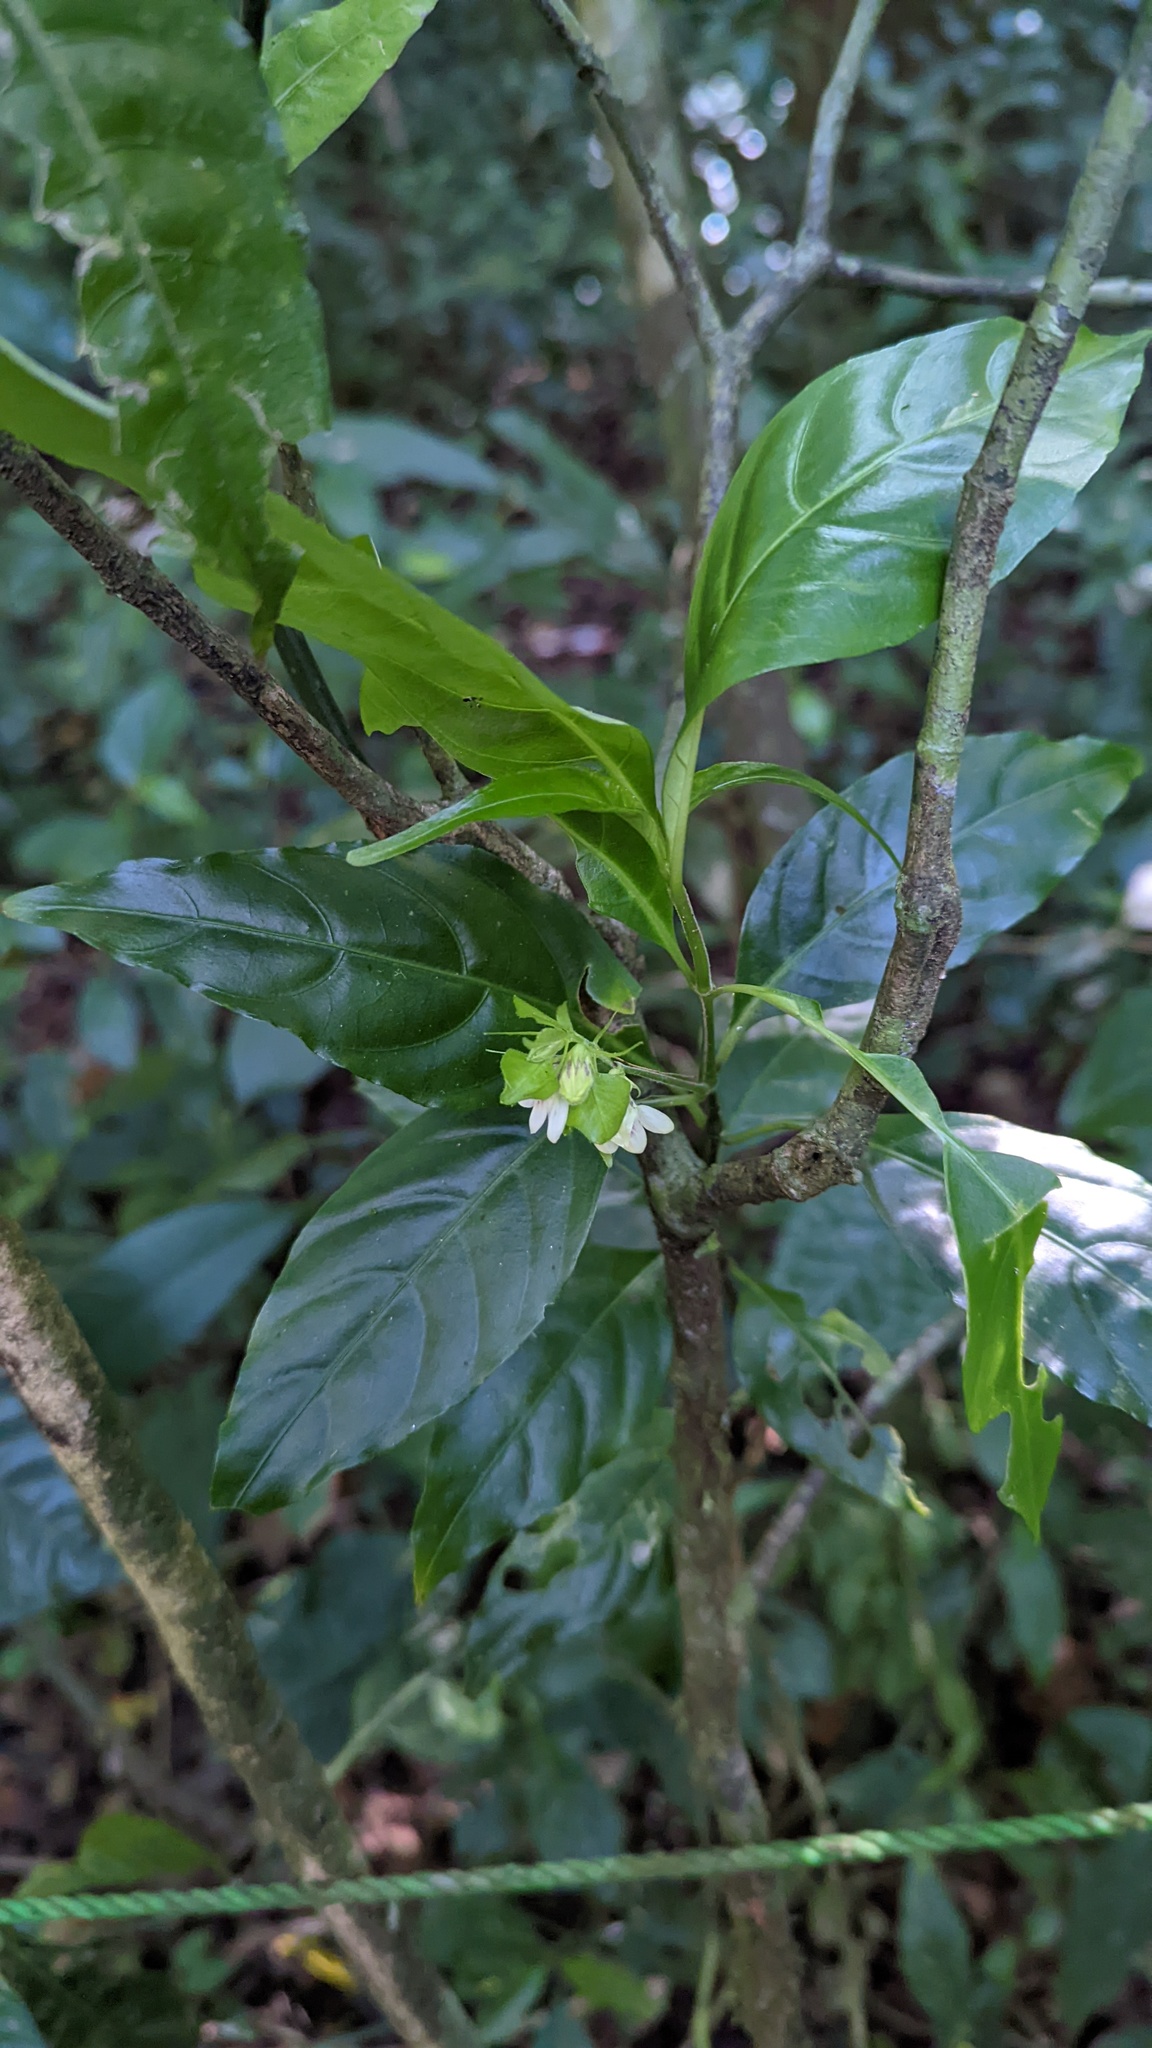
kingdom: Plantae
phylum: Tracheophyta
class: Magnoliopsida
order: Lamiales
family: Acanthaceae
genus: Justicia
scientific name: Justicia costaricana
